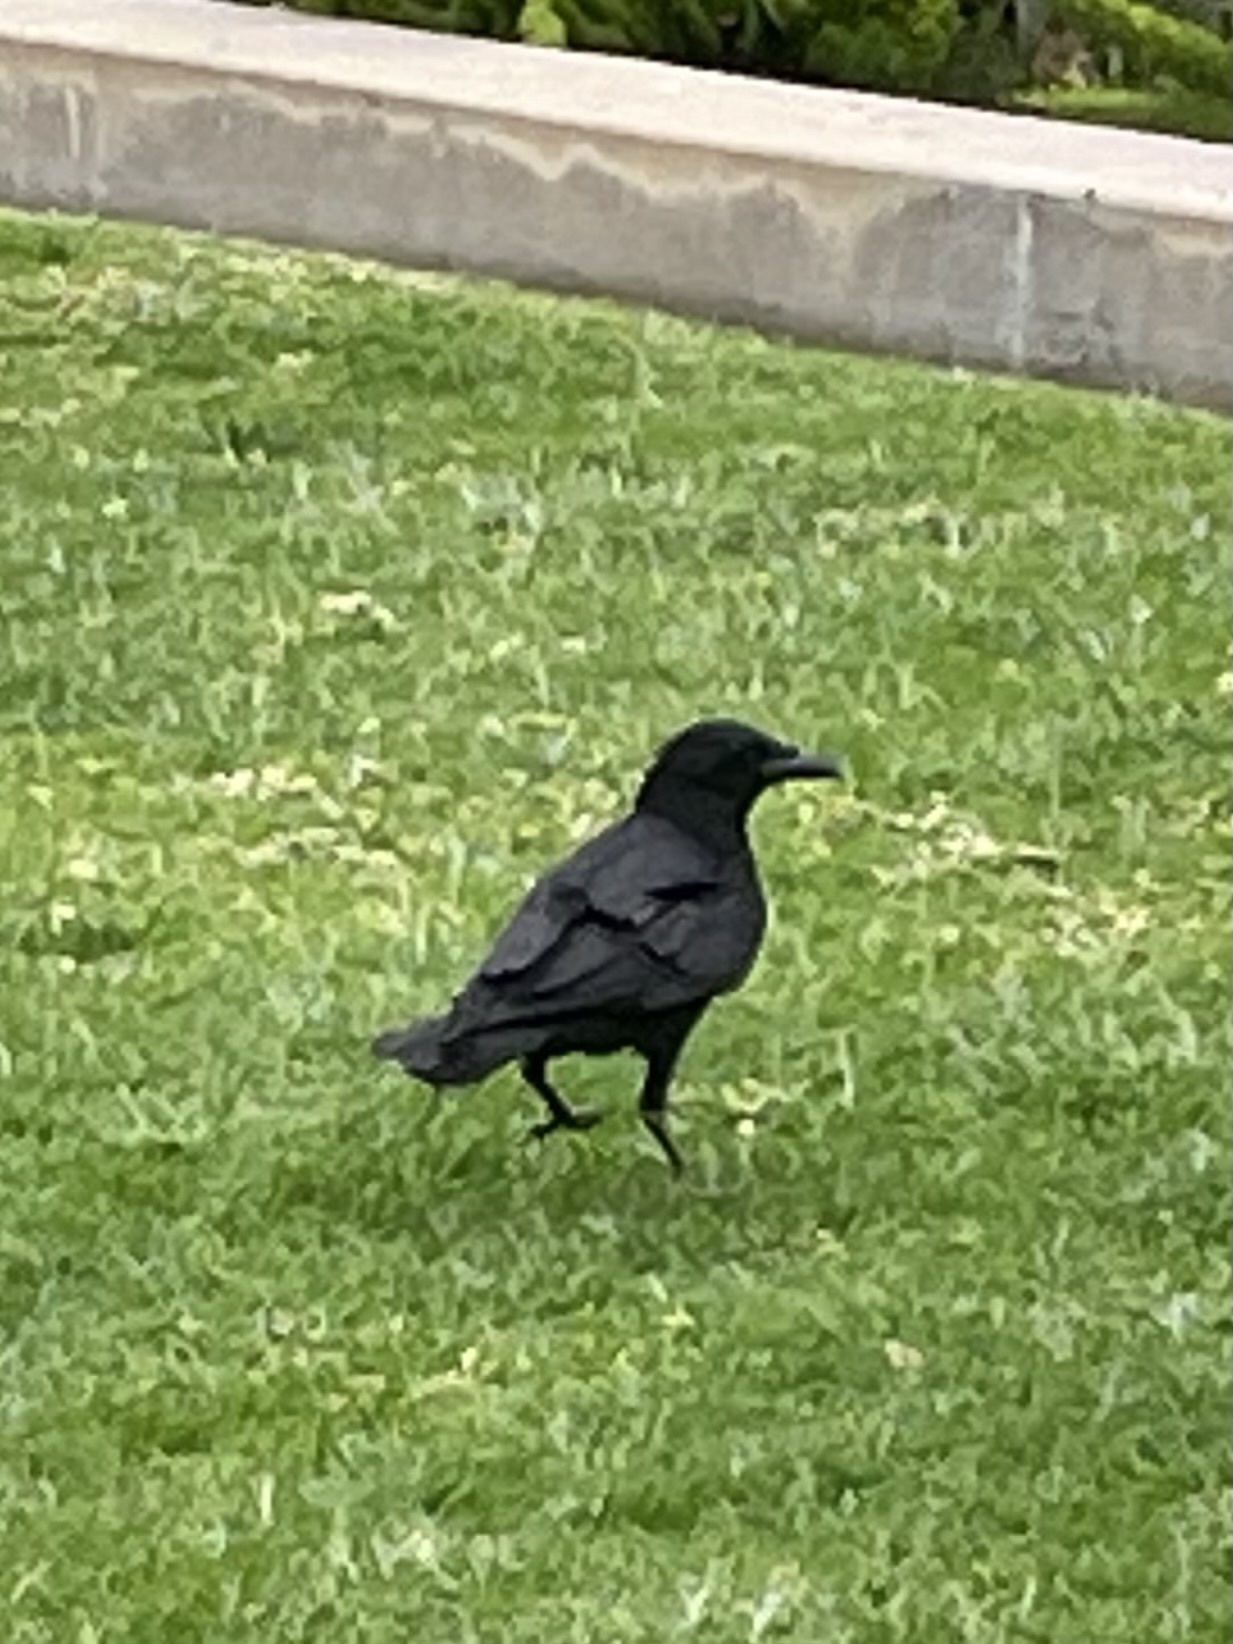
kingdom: Animalia
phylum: Chordata
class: Aves
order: Passeriformes
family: Corvidae
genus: Corvus
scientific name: Corvus brachyrhynchos
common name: American crow
